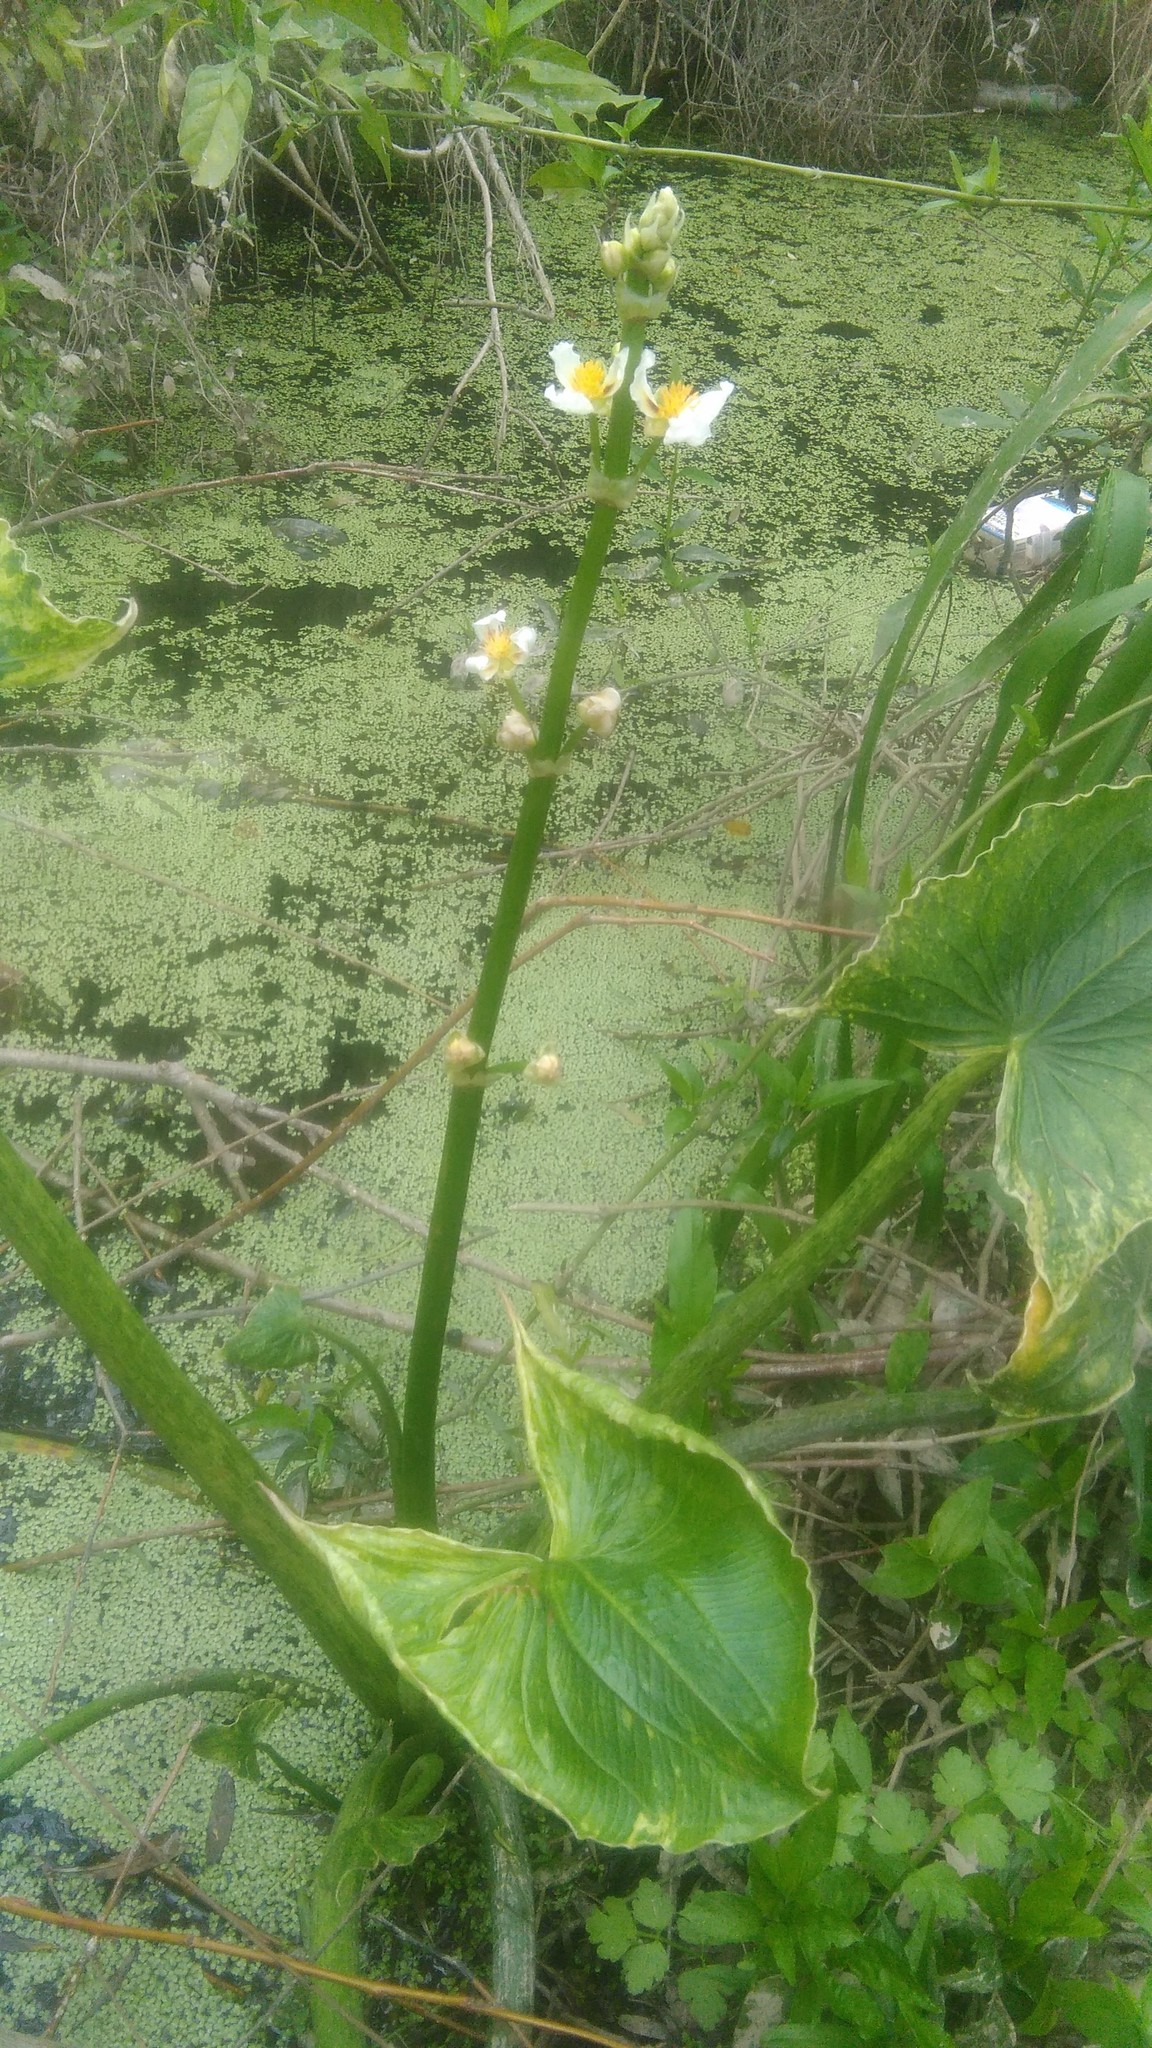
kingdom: Plantae
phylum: Tracheophyta
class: Liliopsida
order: Alismatales
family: Alismataceae
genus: Sagittaria
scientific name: Sagittaria montevidensis
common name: Giant arrowhead
